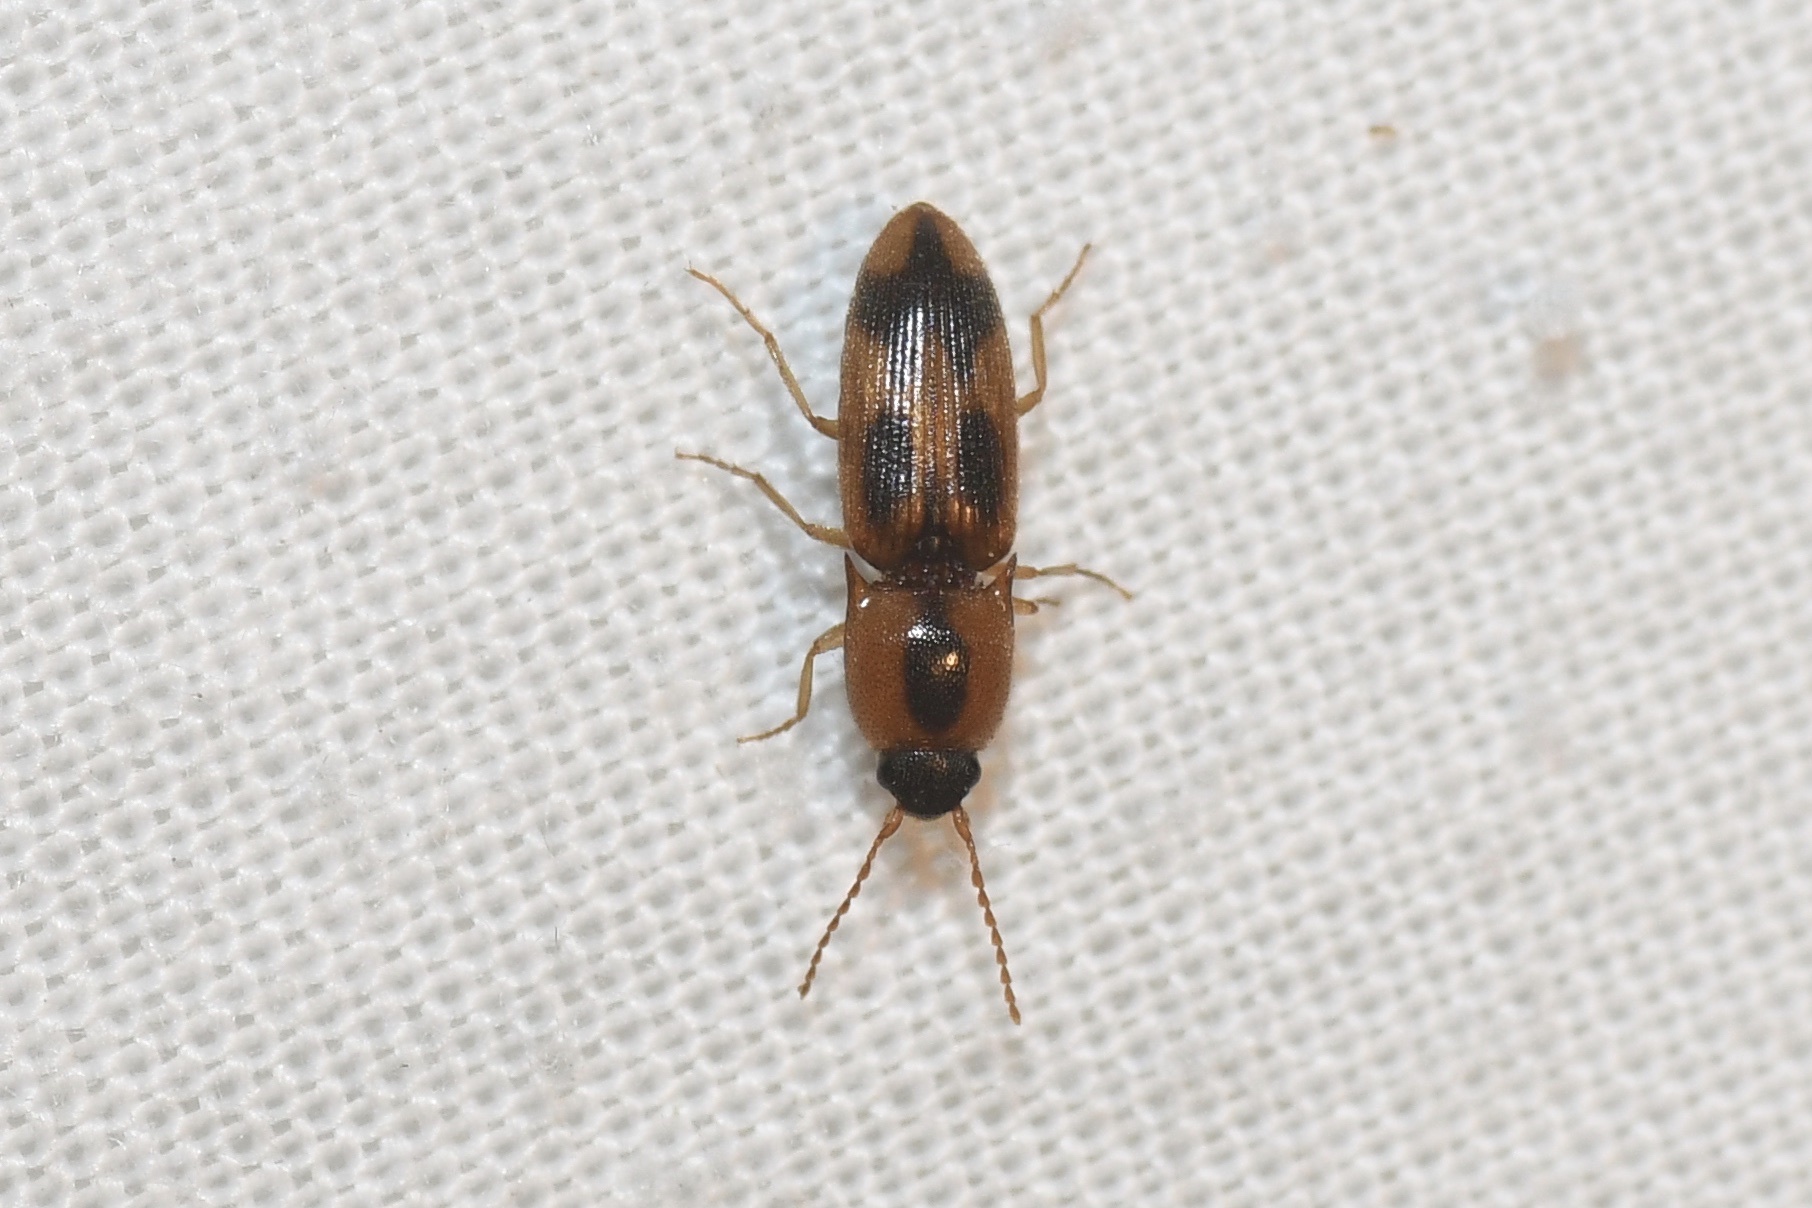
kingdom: Animalia
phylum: Arthropoda
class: Insecta
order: Coleoptera
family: Elateridae
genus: Aeolus
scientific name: Aeolus mellillus
